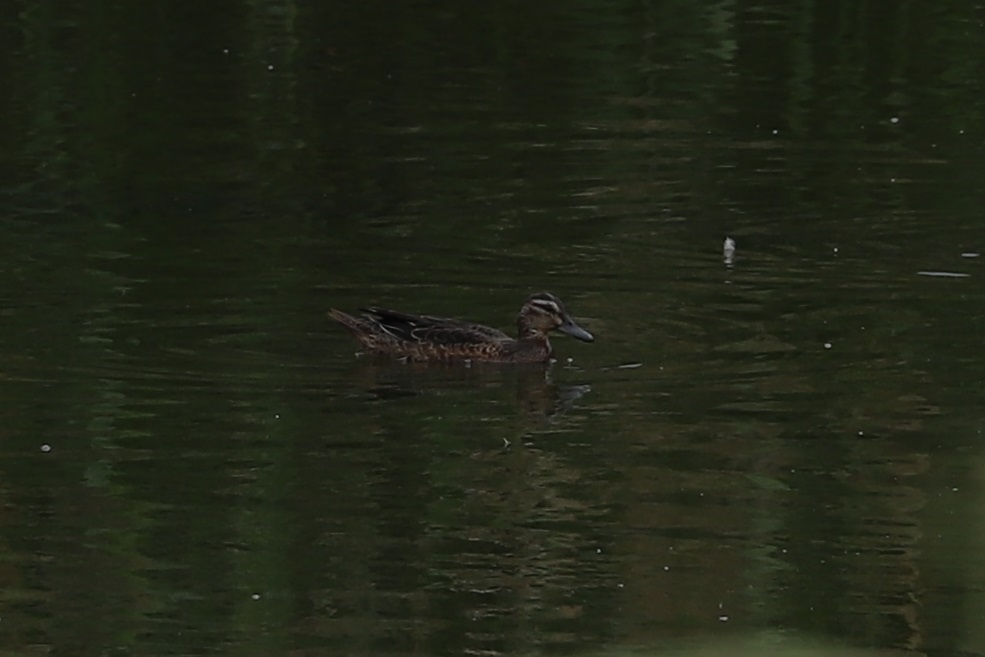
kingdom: Animalia
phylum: Chordata
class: Aves
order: Anseriformes
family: Anatidae
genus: Spatula
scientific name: Spatula querquedula
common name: Garganey
